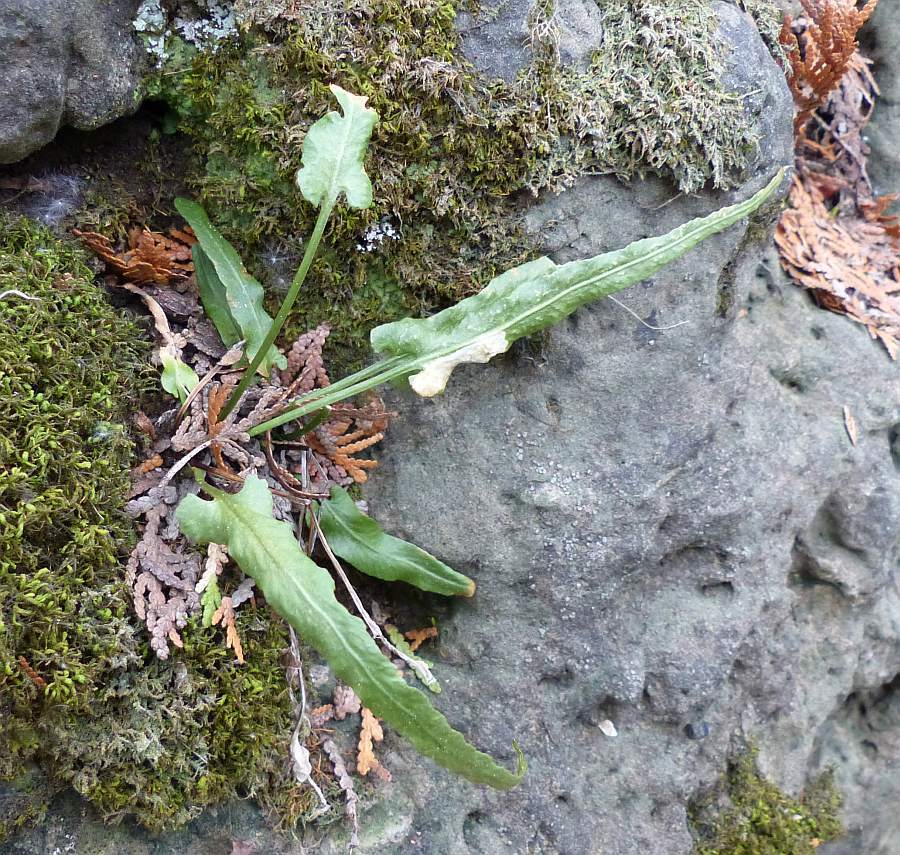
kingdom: Plantae
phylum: Tracheophyta
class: Polypodiopsida
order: Polypodiales
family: Aspleniaceae
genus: Asplenium
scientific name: Asplenium rhizophyllum
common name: Walking fern
